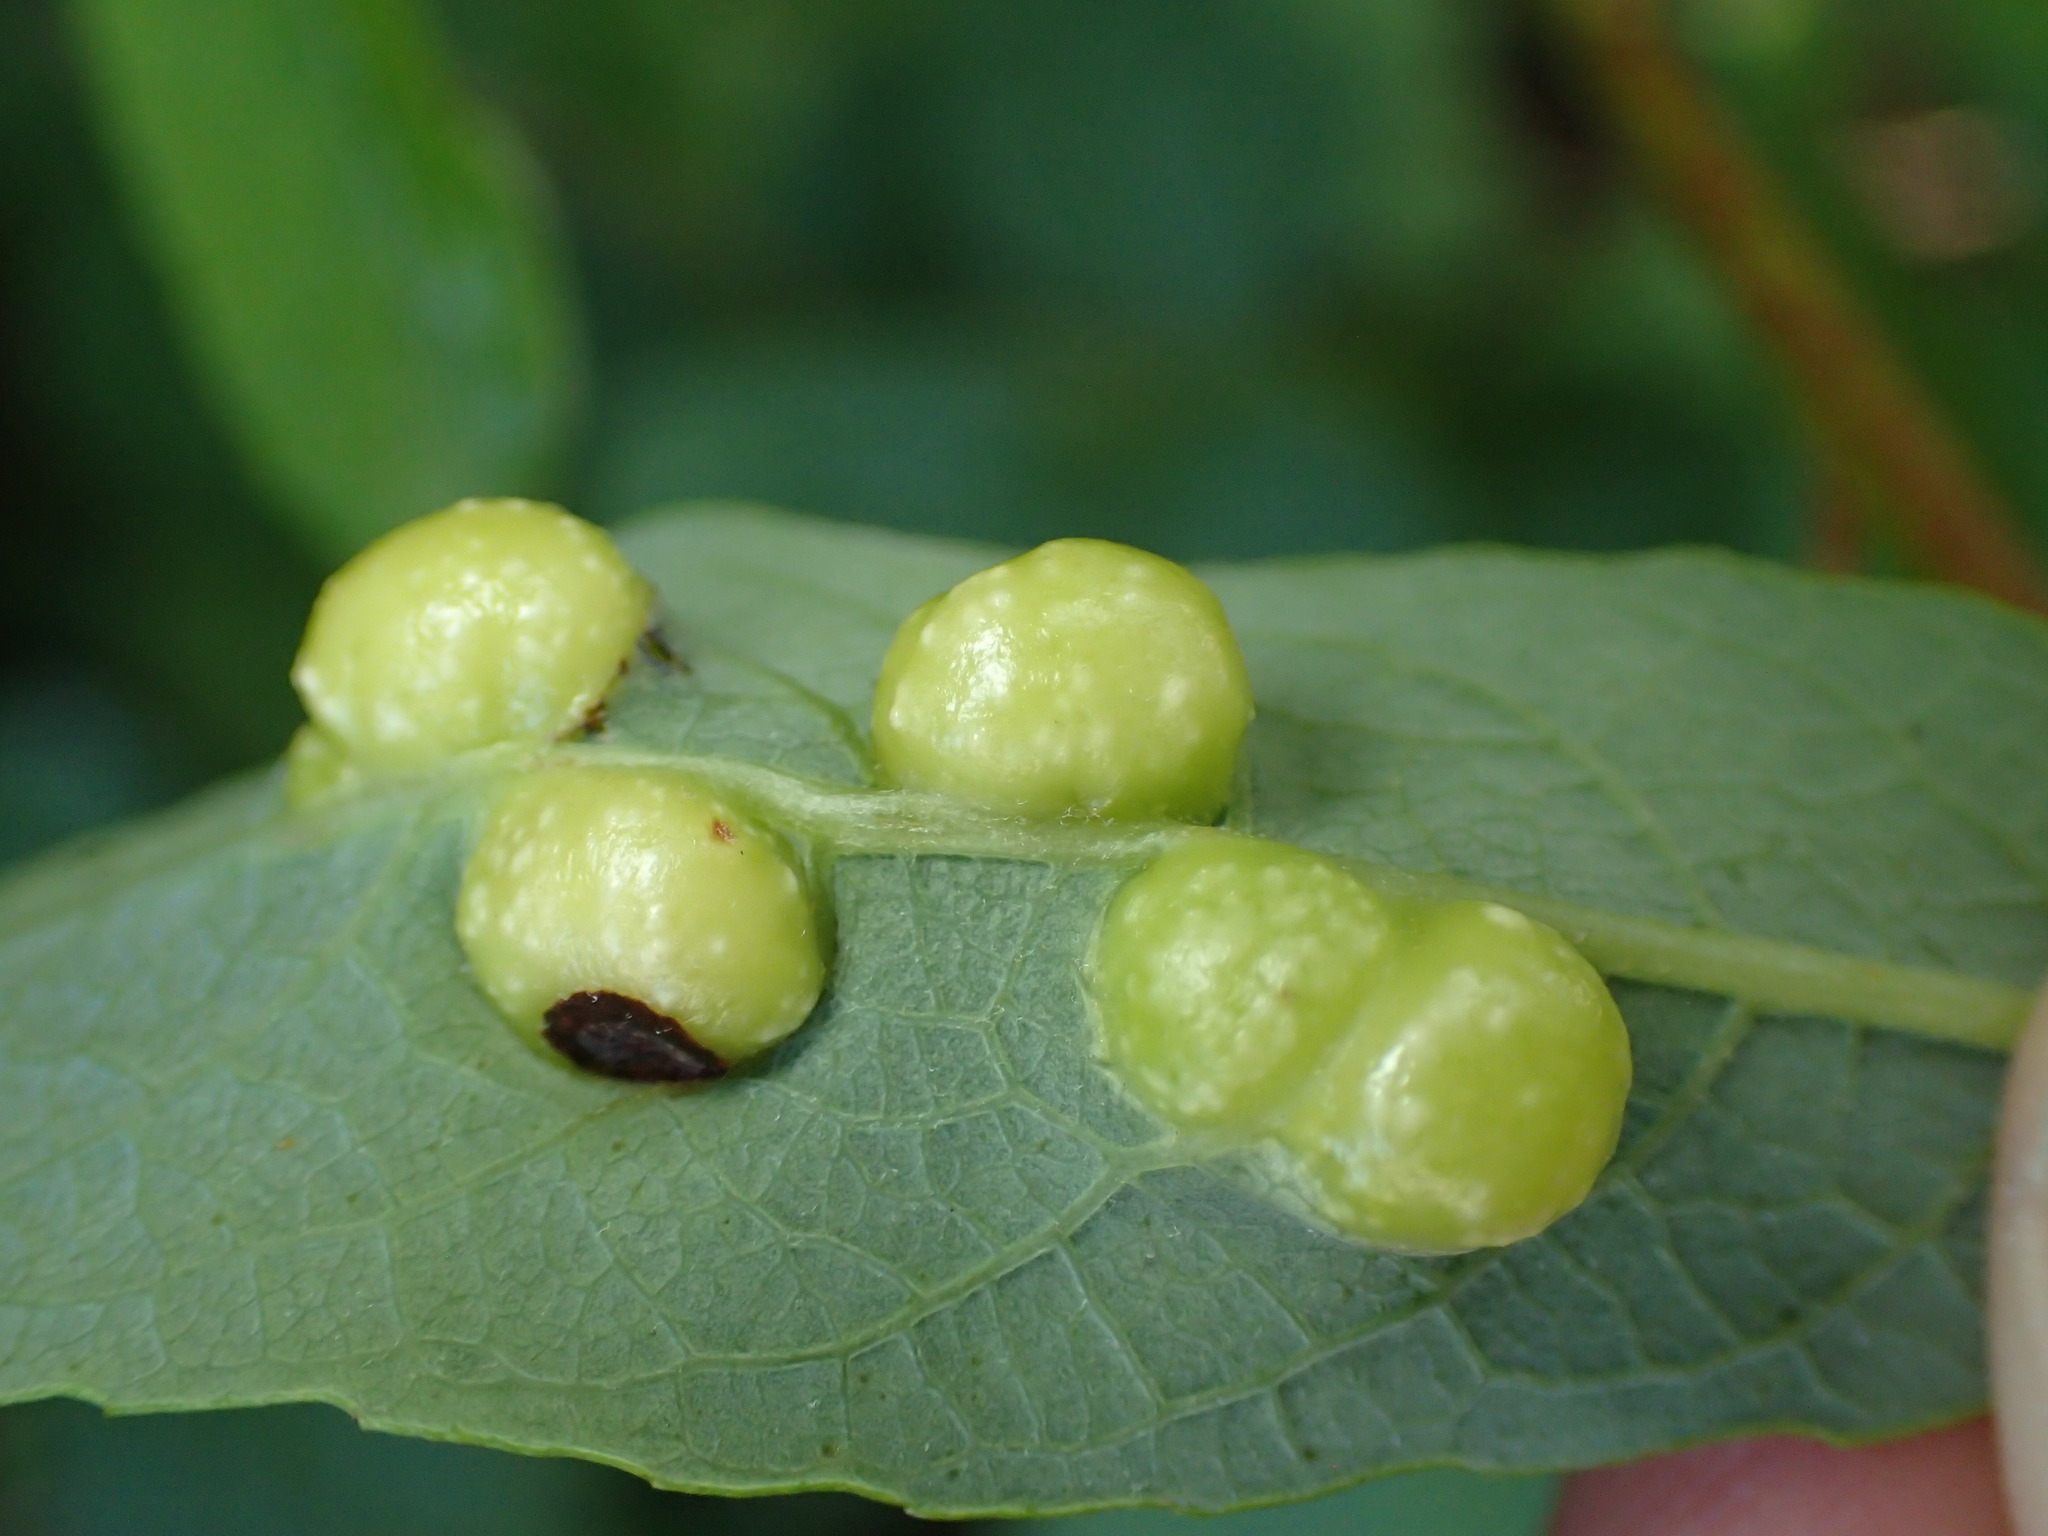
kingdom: Animalia
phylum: Arthropoda
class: Insecta
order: Hymenoptera
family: Tenthredinidae
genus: Euura
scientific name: Euura
